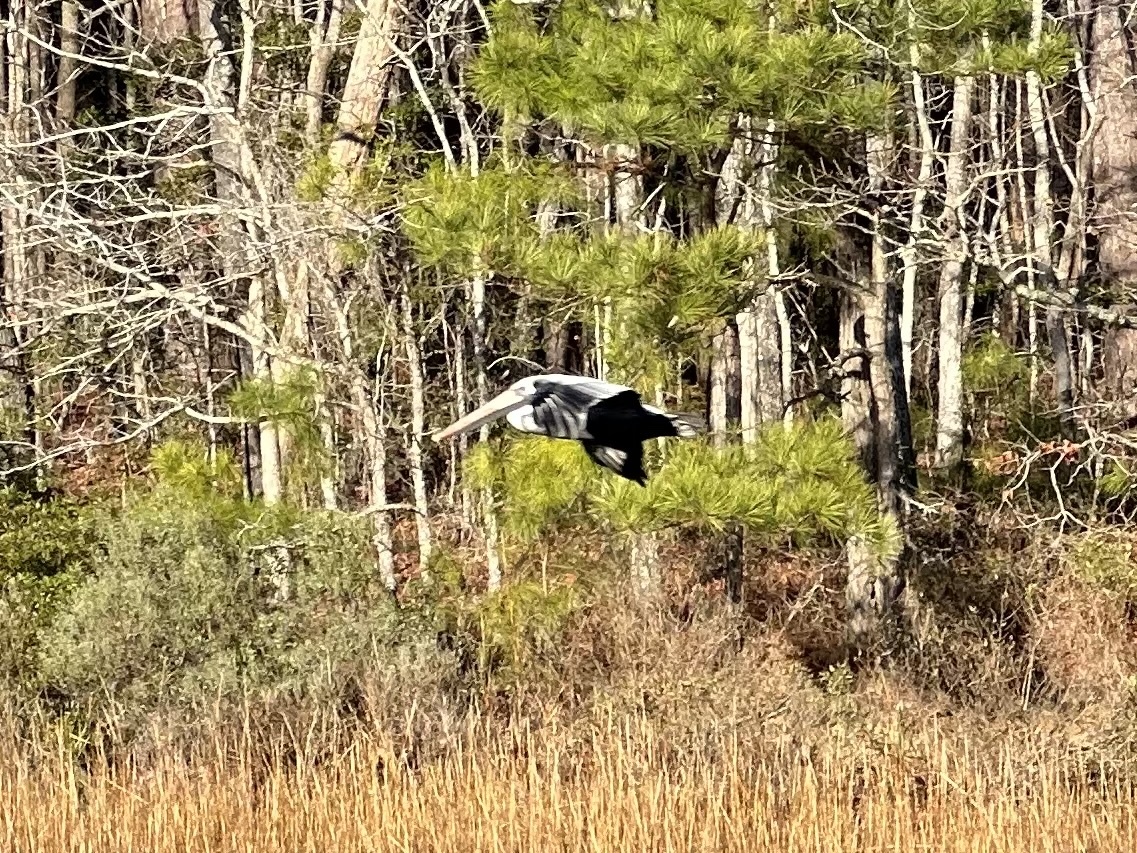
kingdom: Animalia
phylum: Chordata
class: Aves
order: Pelecaniformes
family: Pelecanidae
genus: Pelecanus
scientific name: Pelecanus occidentalis
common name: Brown pelican
